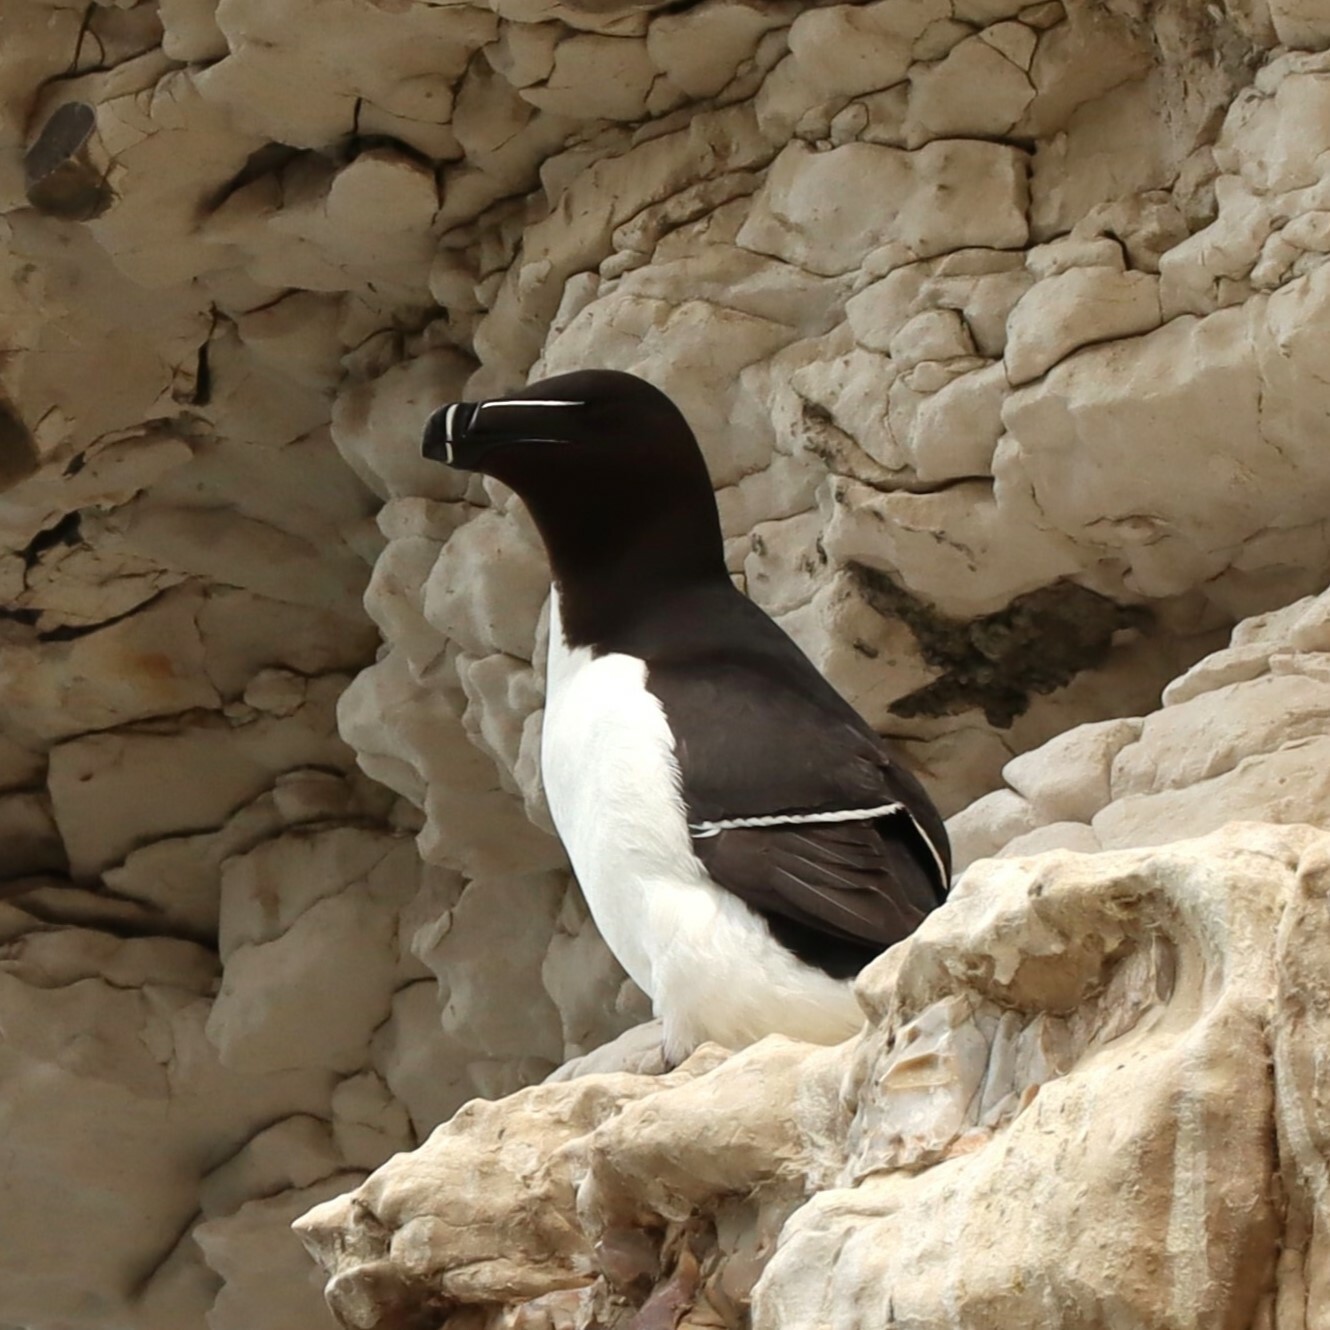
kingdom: Animalia
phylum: Chordata
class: Aves
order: Charadriiformes
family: Alcidae
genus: Alca
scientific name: Alca torda
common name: Razorbill
